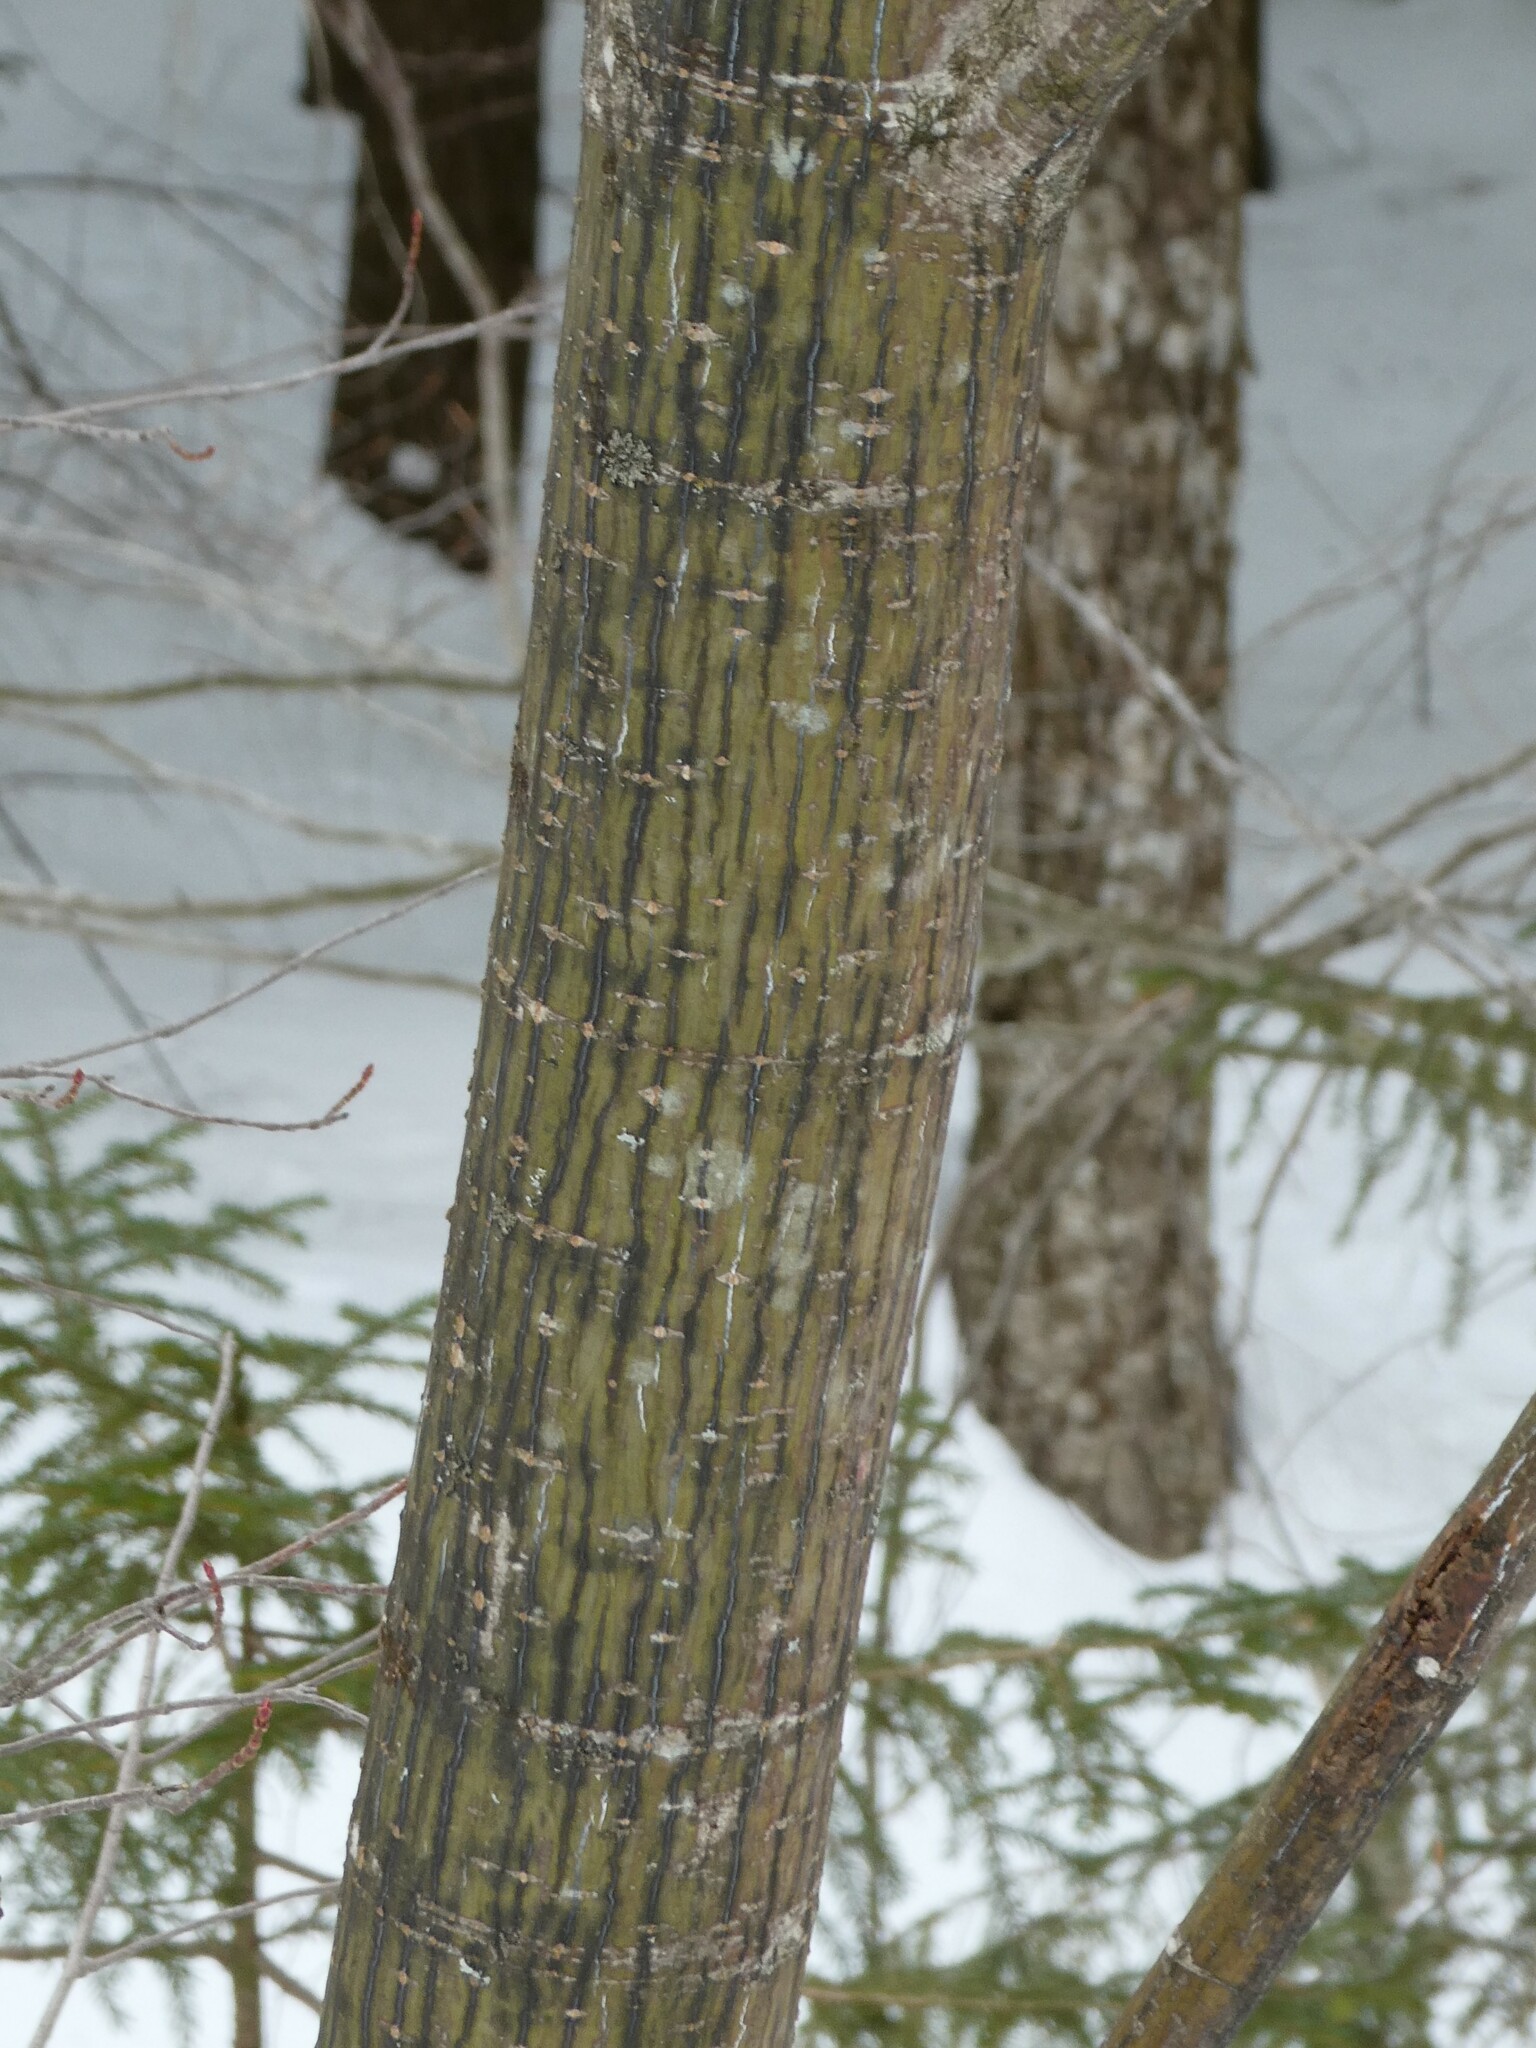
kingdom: Plantae
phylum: Tracheophyta
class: Magnoliopsida
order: Sapindales
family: Sapindaceae
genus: Acer
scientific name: Acer pensylvanicum
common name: Moosewood
